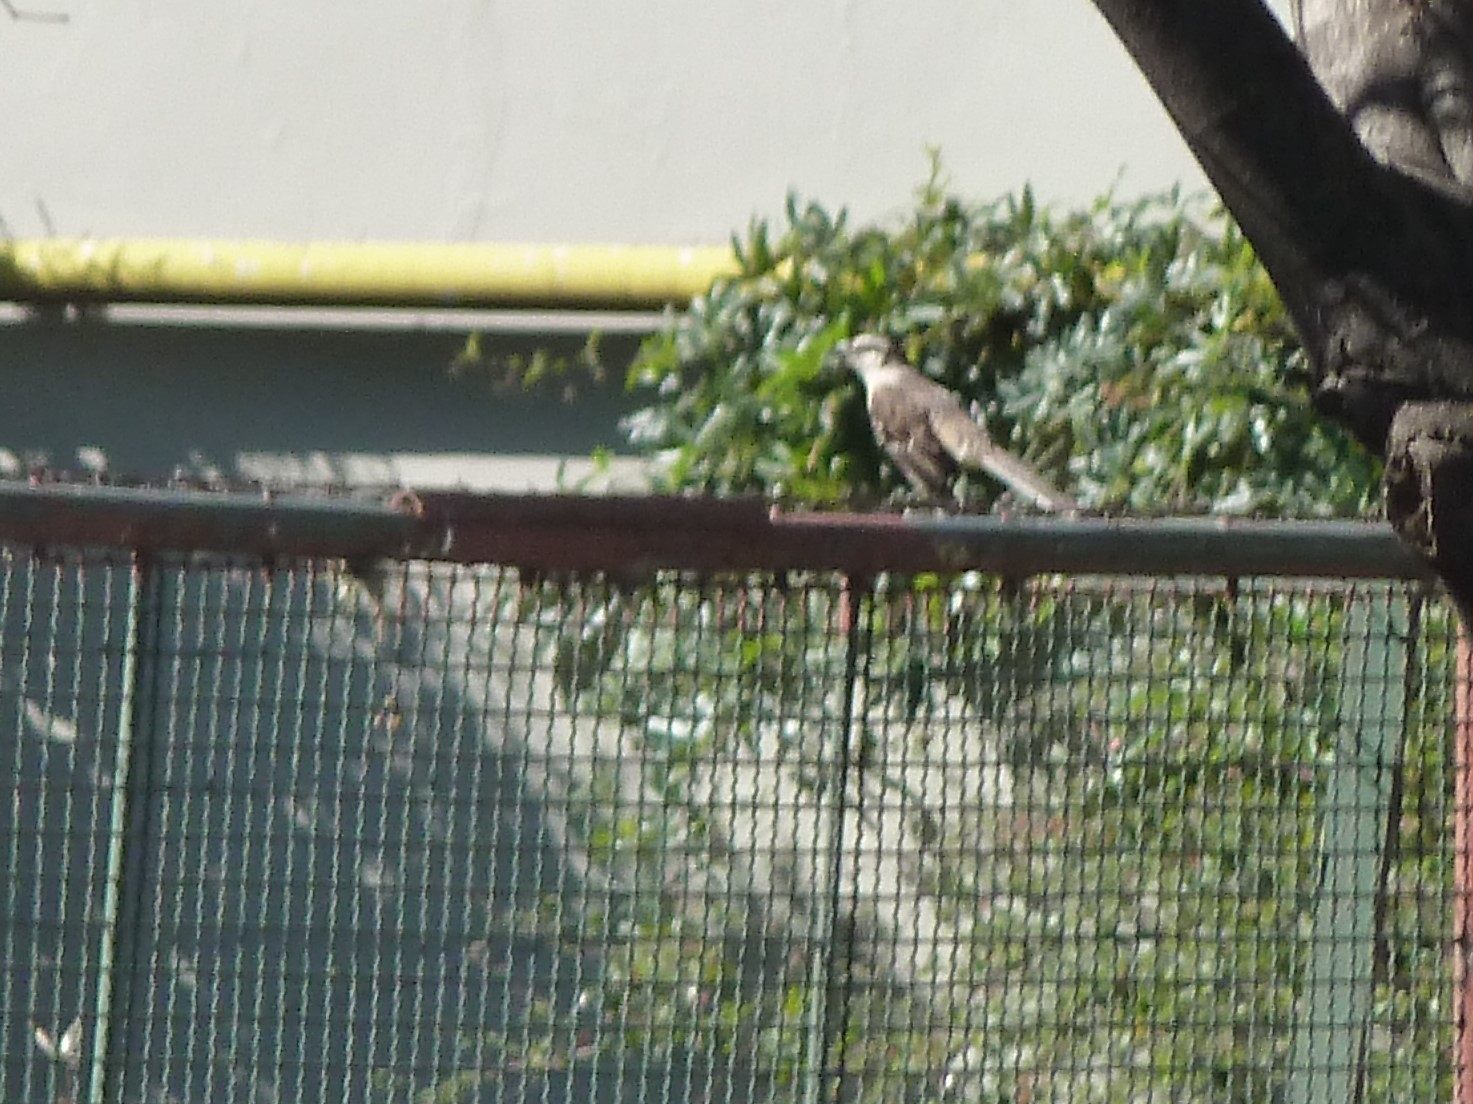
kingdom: Animalia
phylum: Chordata
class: Aves
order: Passeriformes
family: Mimidae
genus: Mimus
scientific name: Mimus saturninus
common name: Chalk-browed mockingbird
